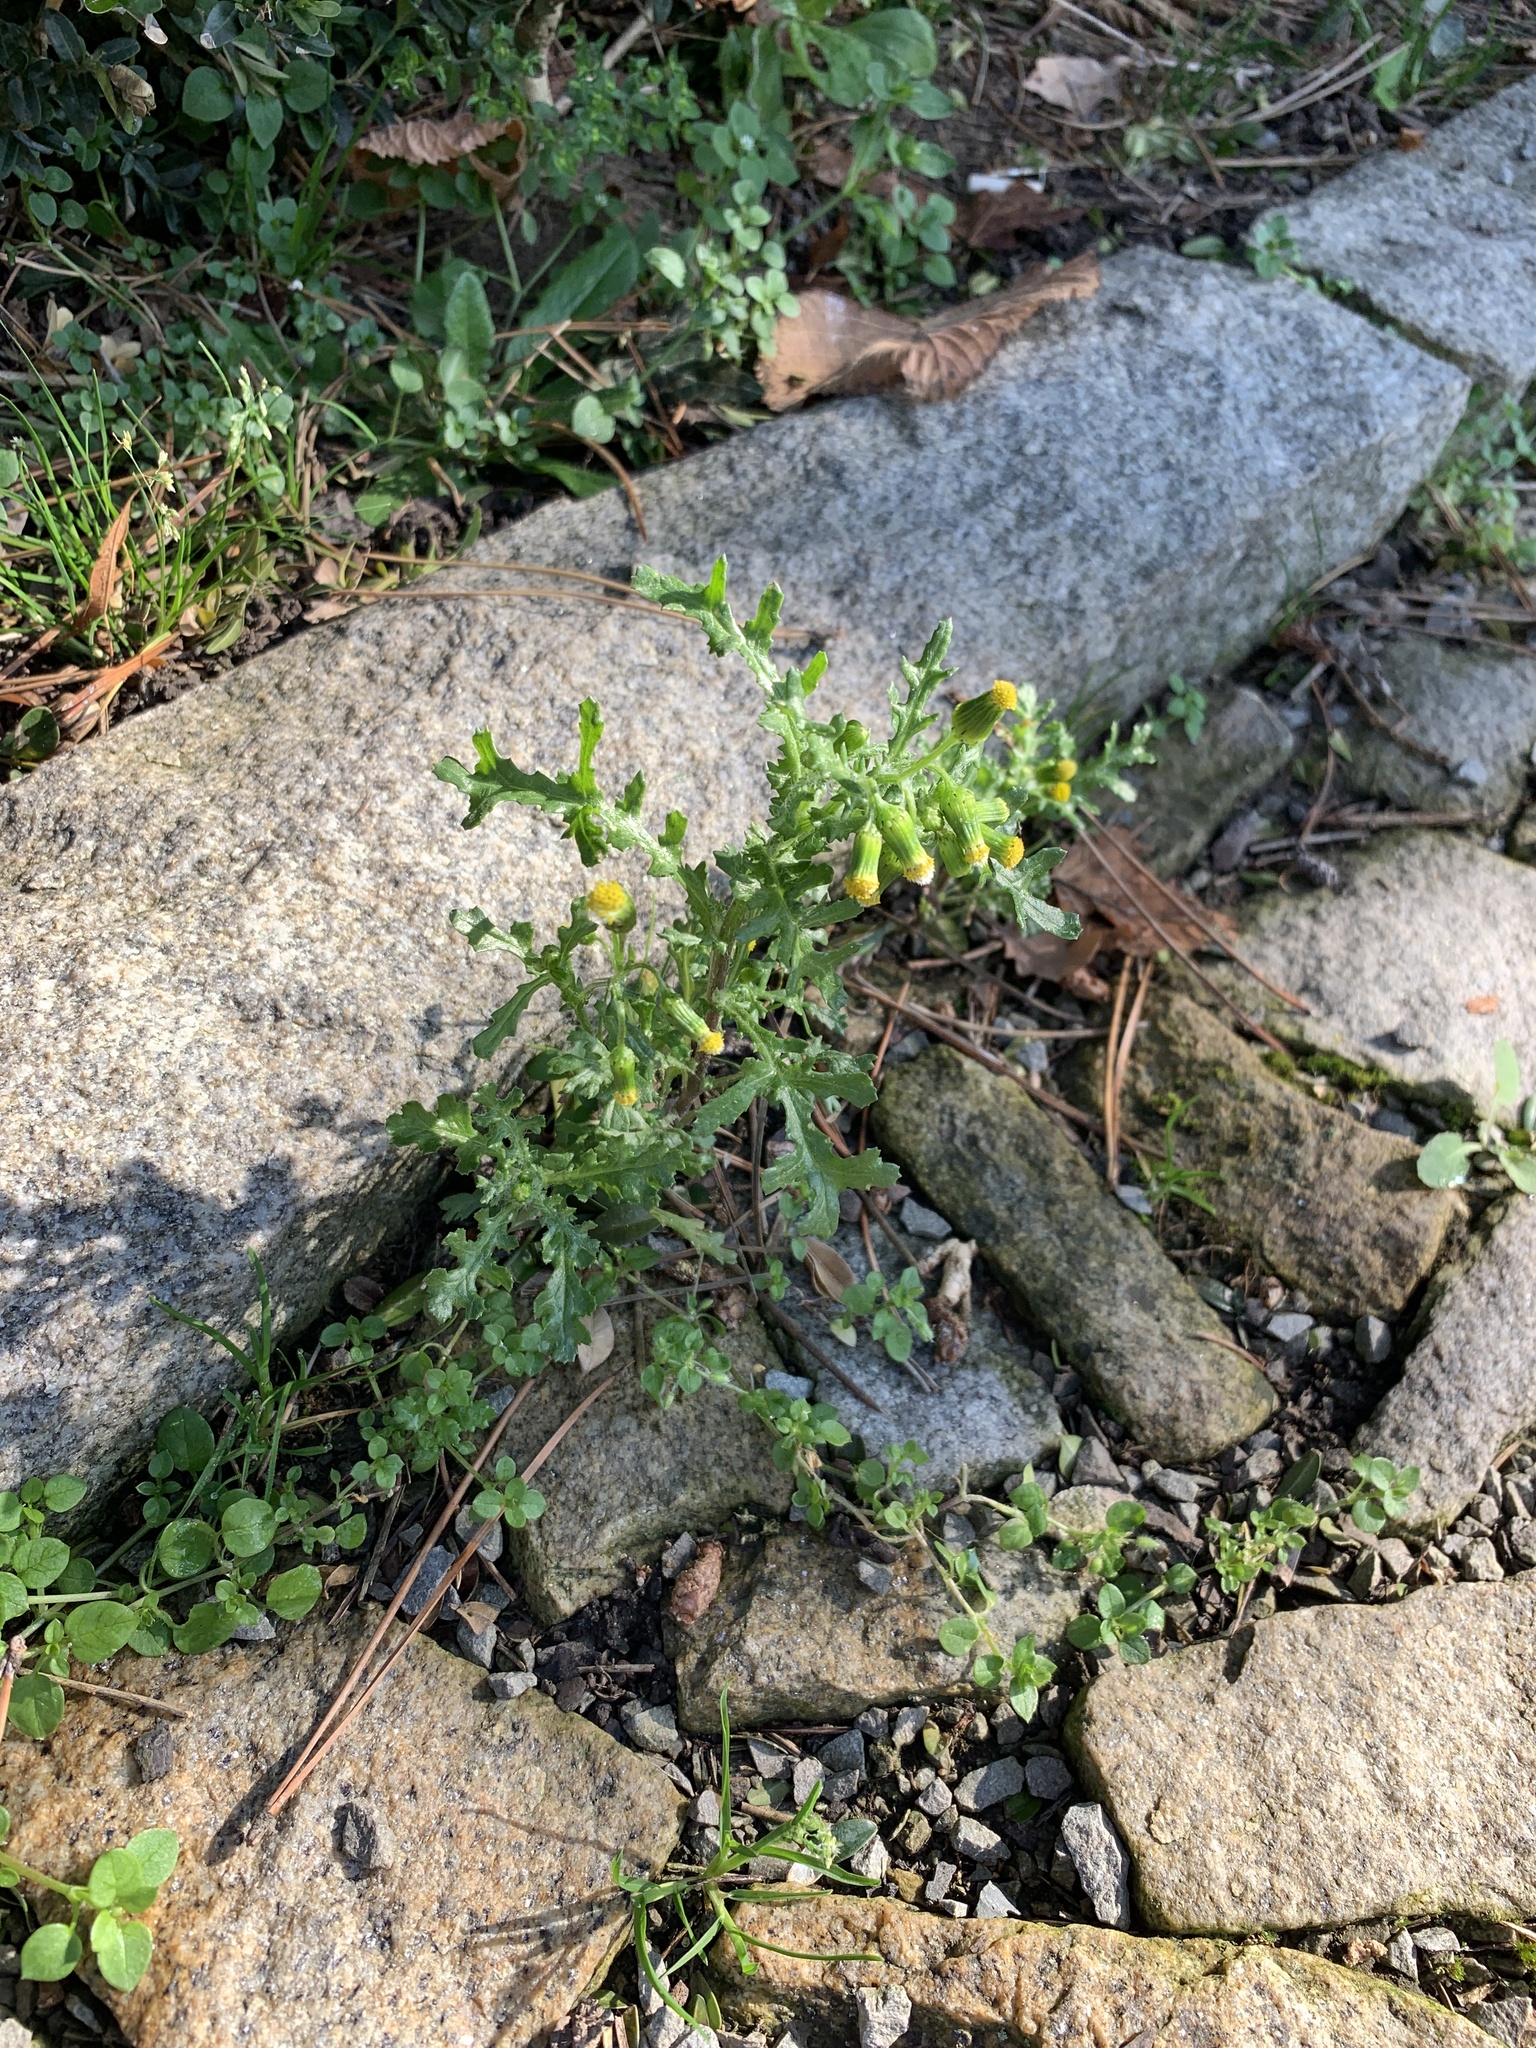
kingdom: Plantae
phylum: Tracheophyta
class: Magnoliopsida
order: Asterales
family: Asteraceae
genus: Senecio
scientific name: Senecio vulgaris
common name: Old-man-in-the-spring
